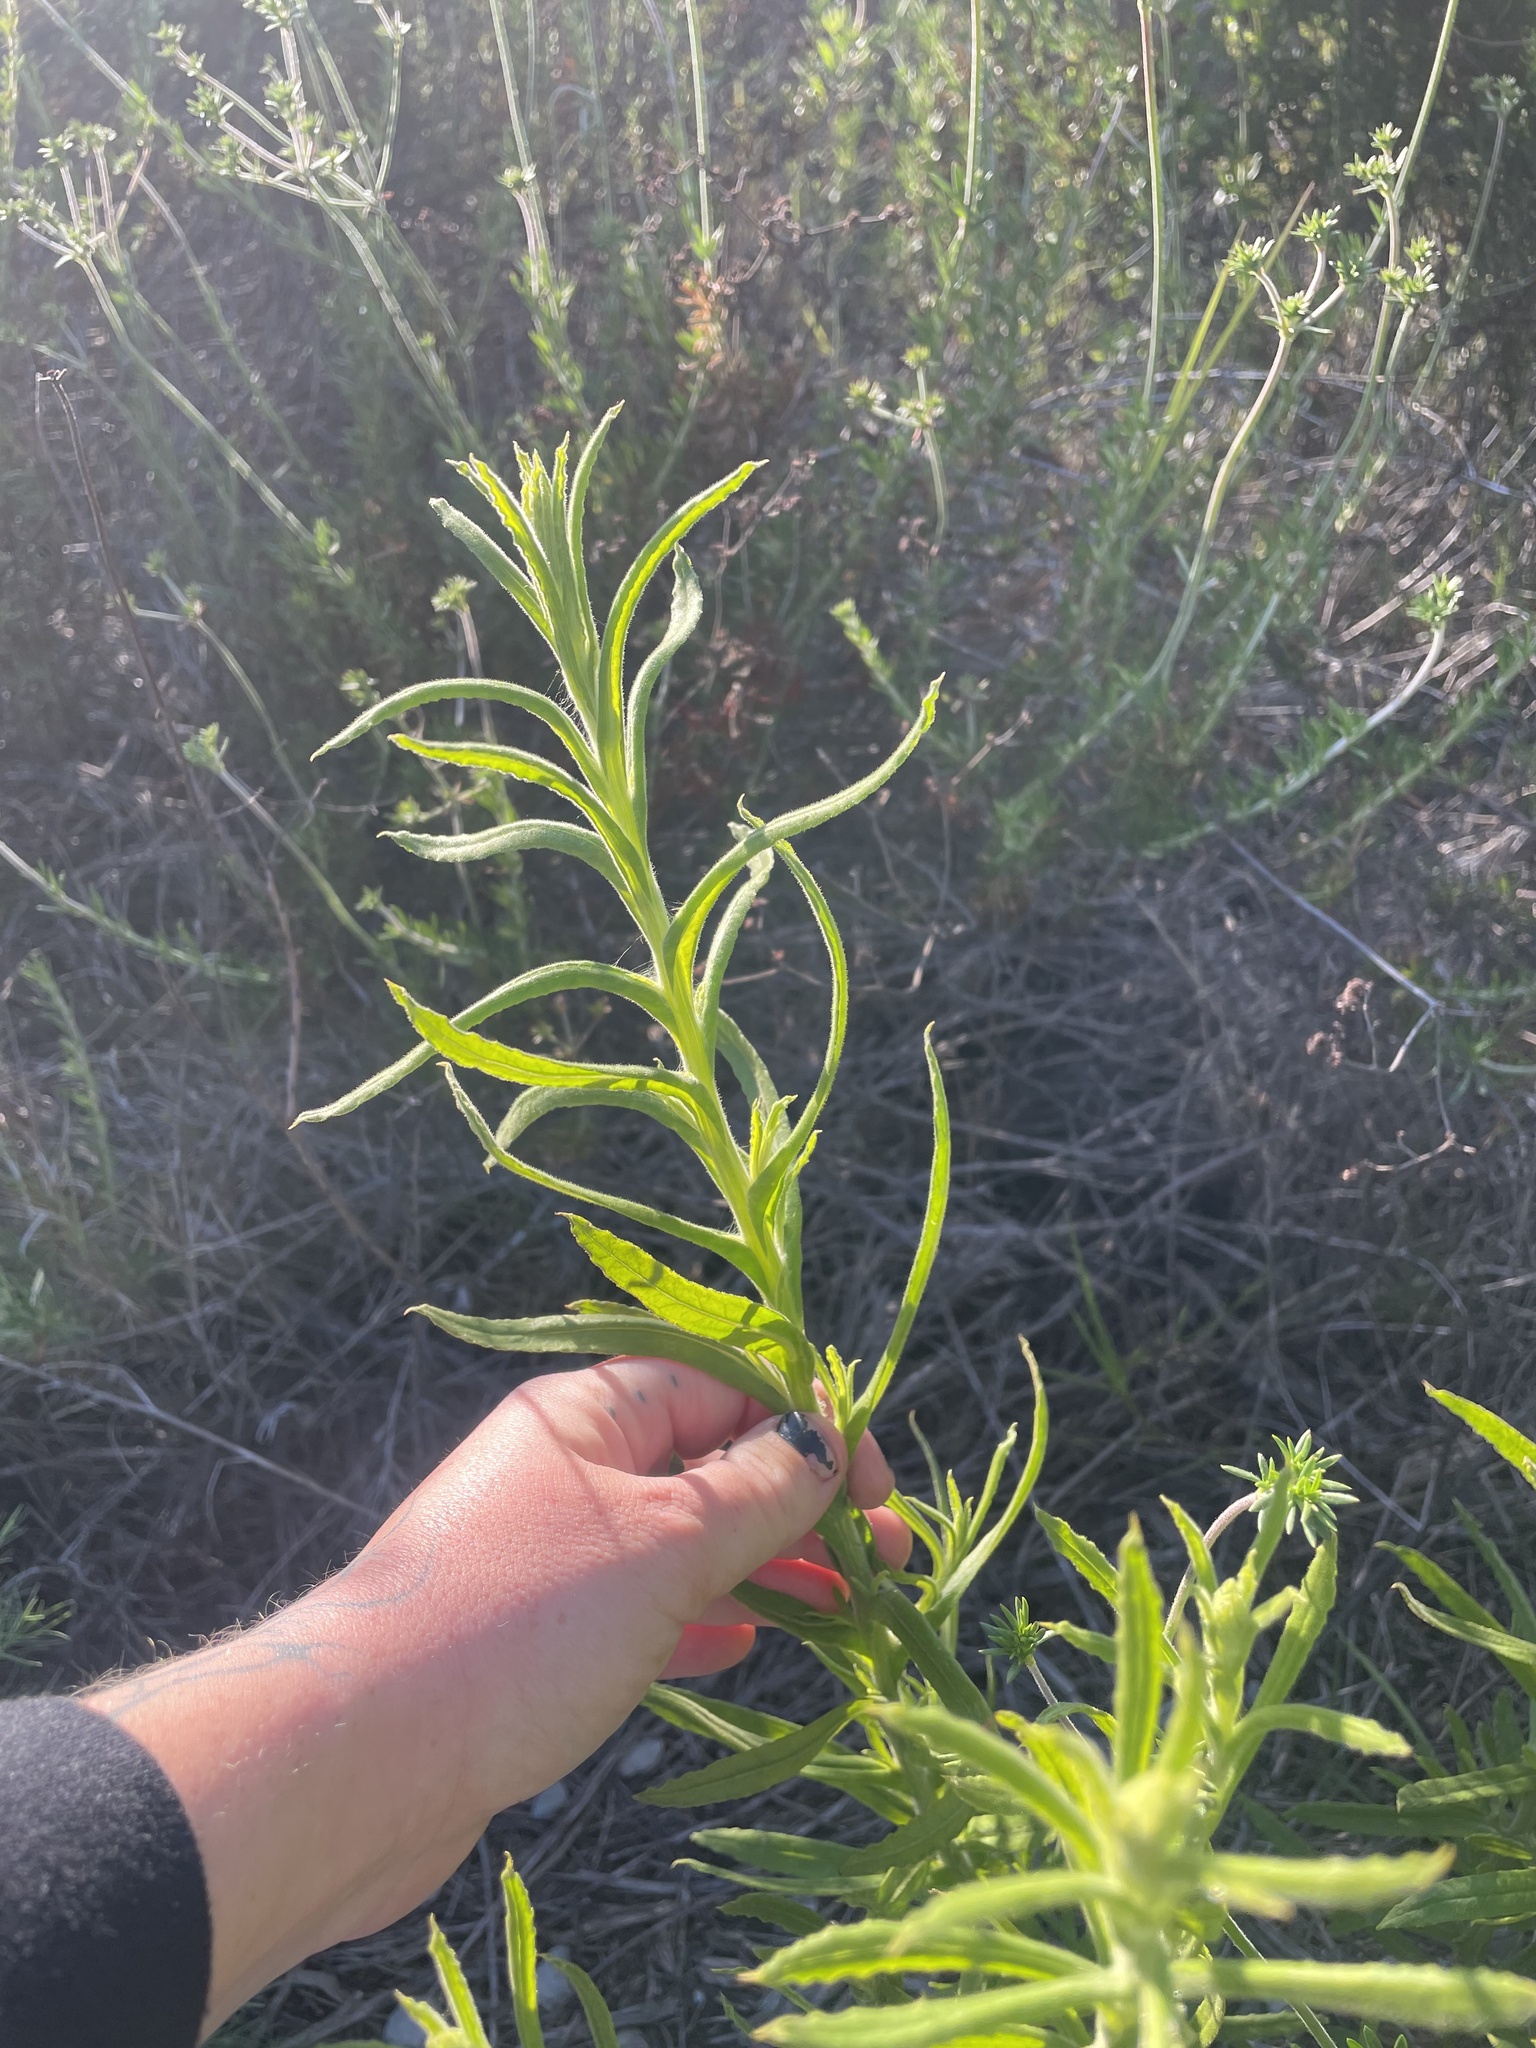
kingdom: Plantae
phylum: Tracheophyta
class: Magnoliopsida
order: Asterales
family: Asteraceae
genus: Pseudognaphalium
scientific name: Pseudognaphalium californicum
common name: California rabbit-tobacco
